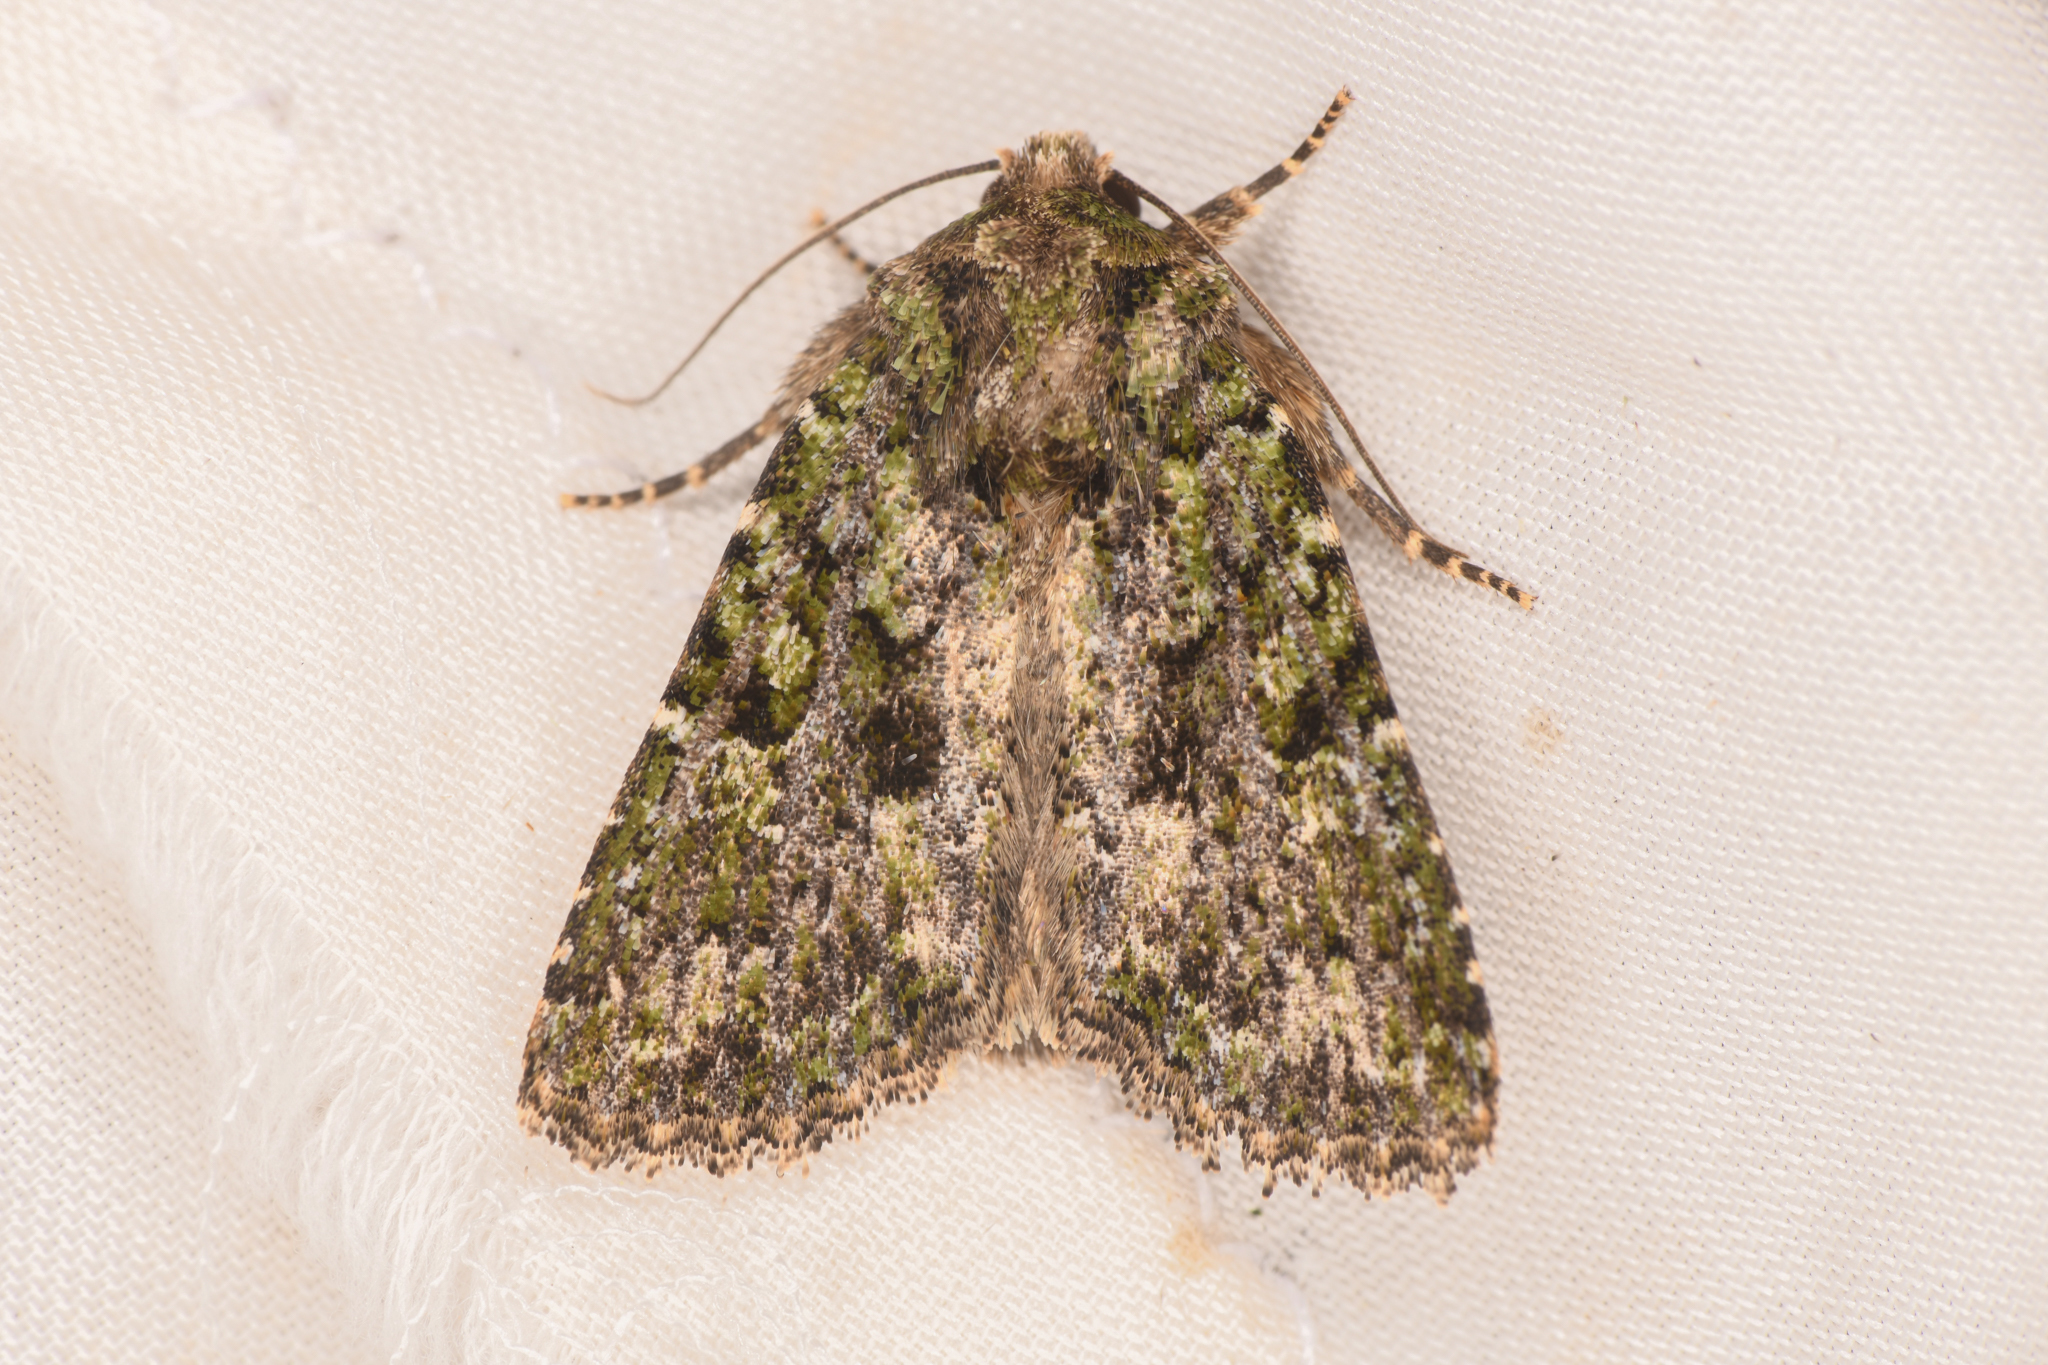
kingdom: Animalia
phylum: Arthropoda
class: Insecta
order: Lepidoptera
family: Noctuidae
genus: Aseptis
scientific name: Aseptis marina
